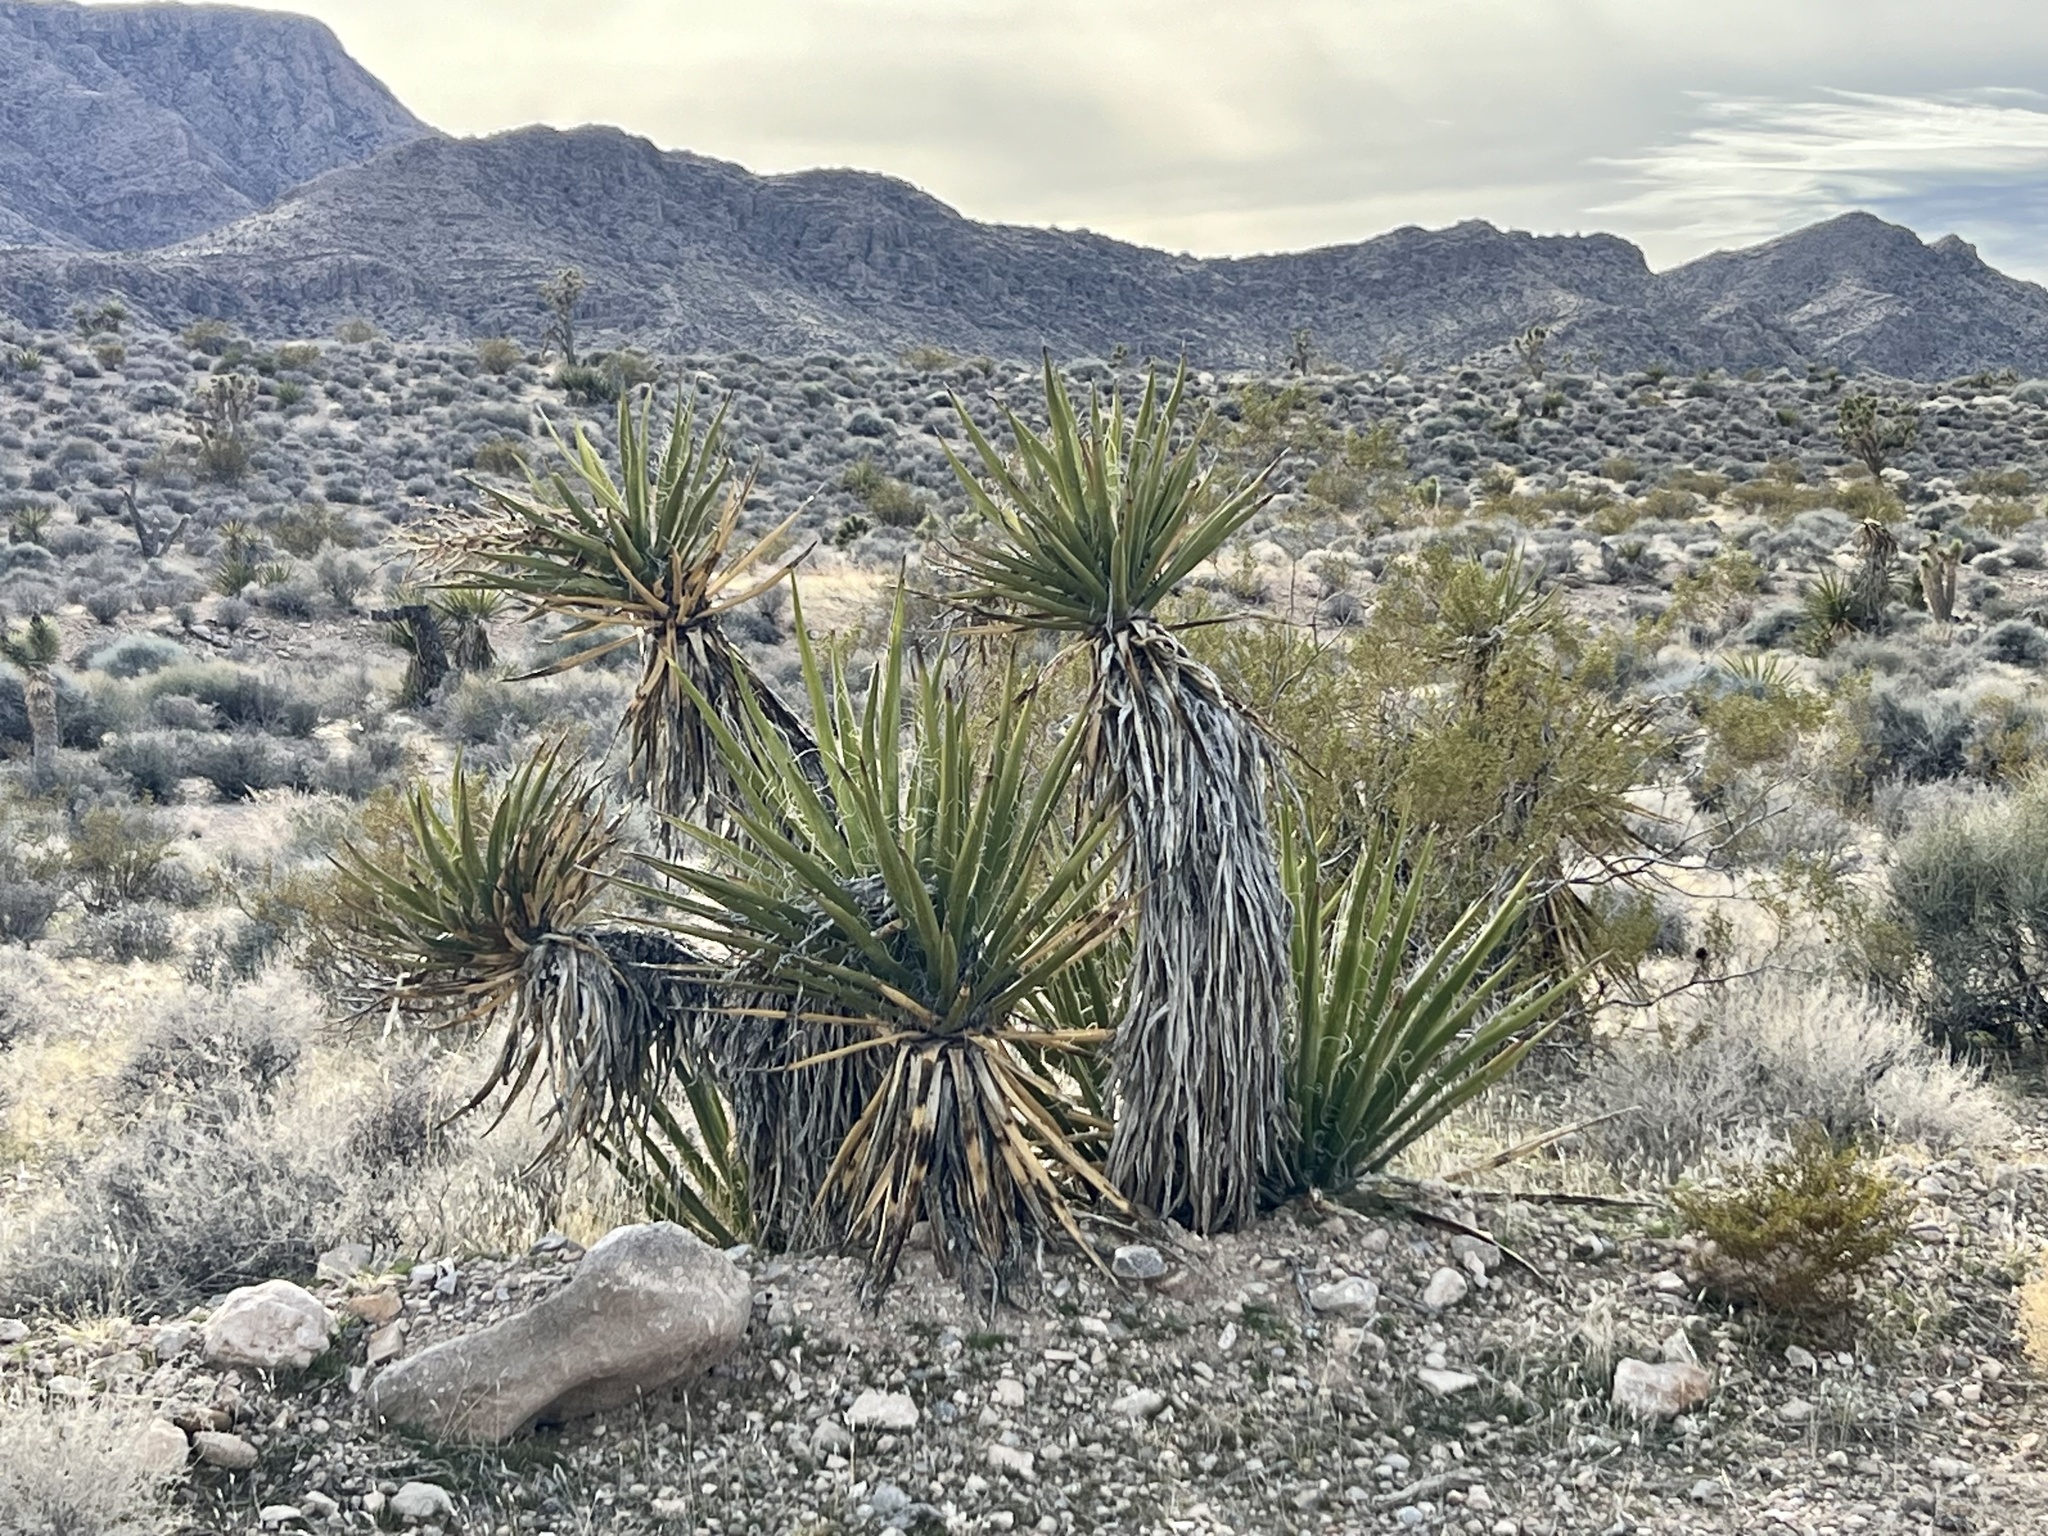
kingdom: Plantae
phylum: Tracheophyta
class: Liliopsida
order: Asparagales
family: Asparagaceae
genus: Yucca
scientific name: Yucca schidigera
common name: Mojave yucca
